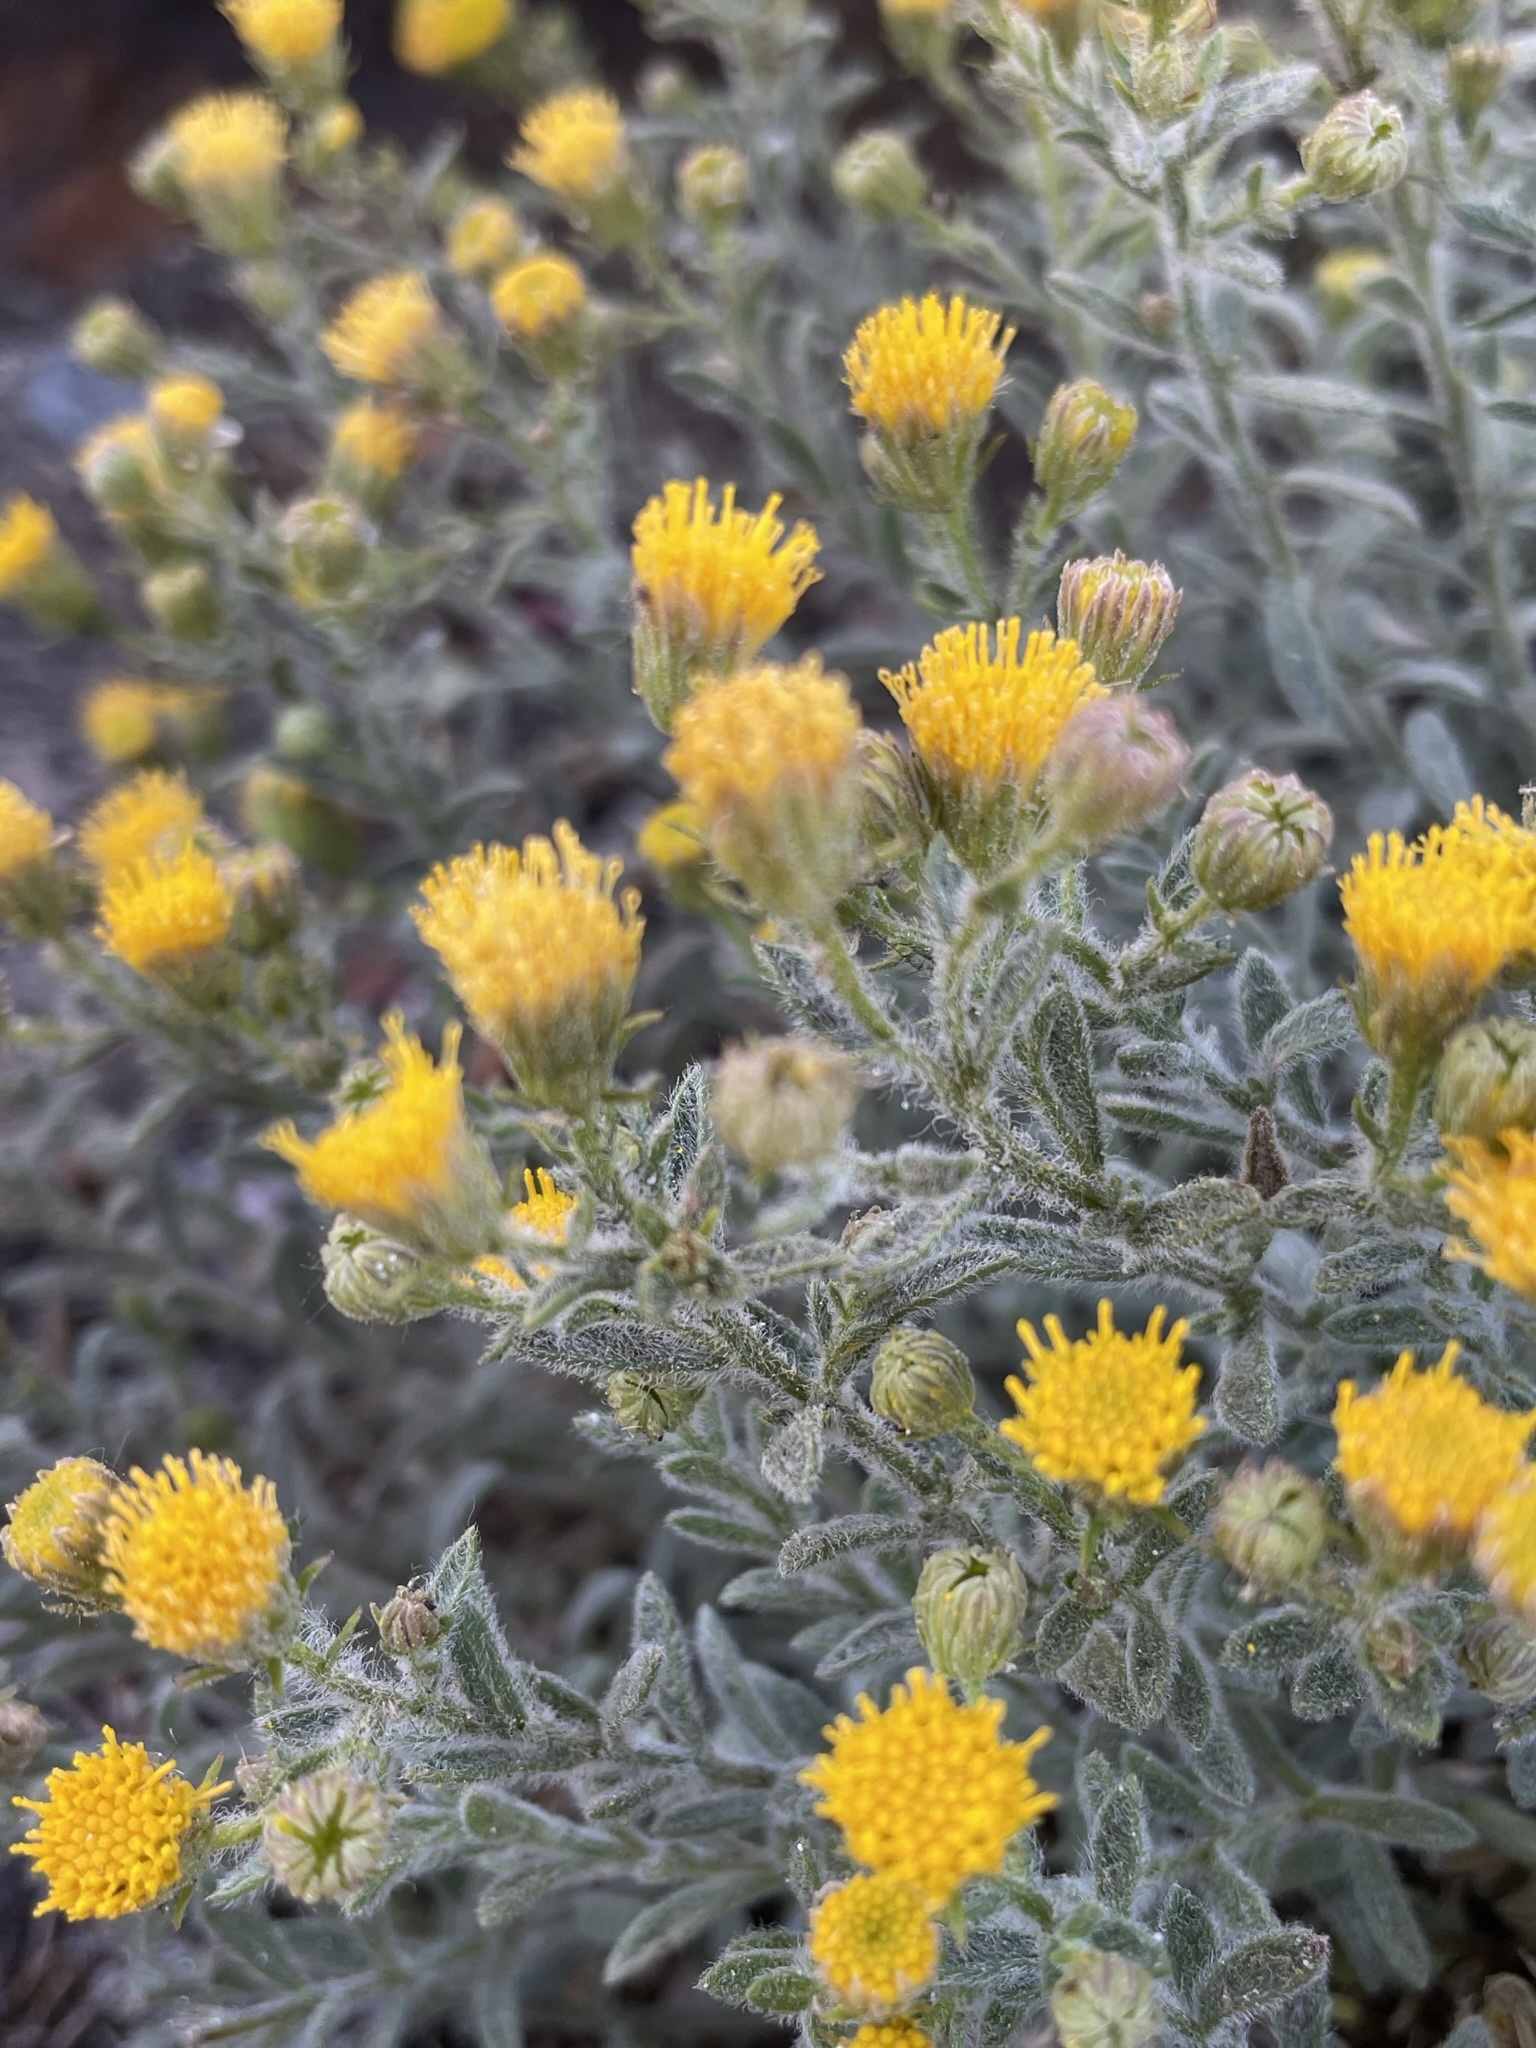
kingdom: Plantae
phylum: Tracheophyta
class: Magnoliopsida
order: Asterales
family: Asteraceae
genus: Erigeron
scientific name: Erigeron miser
